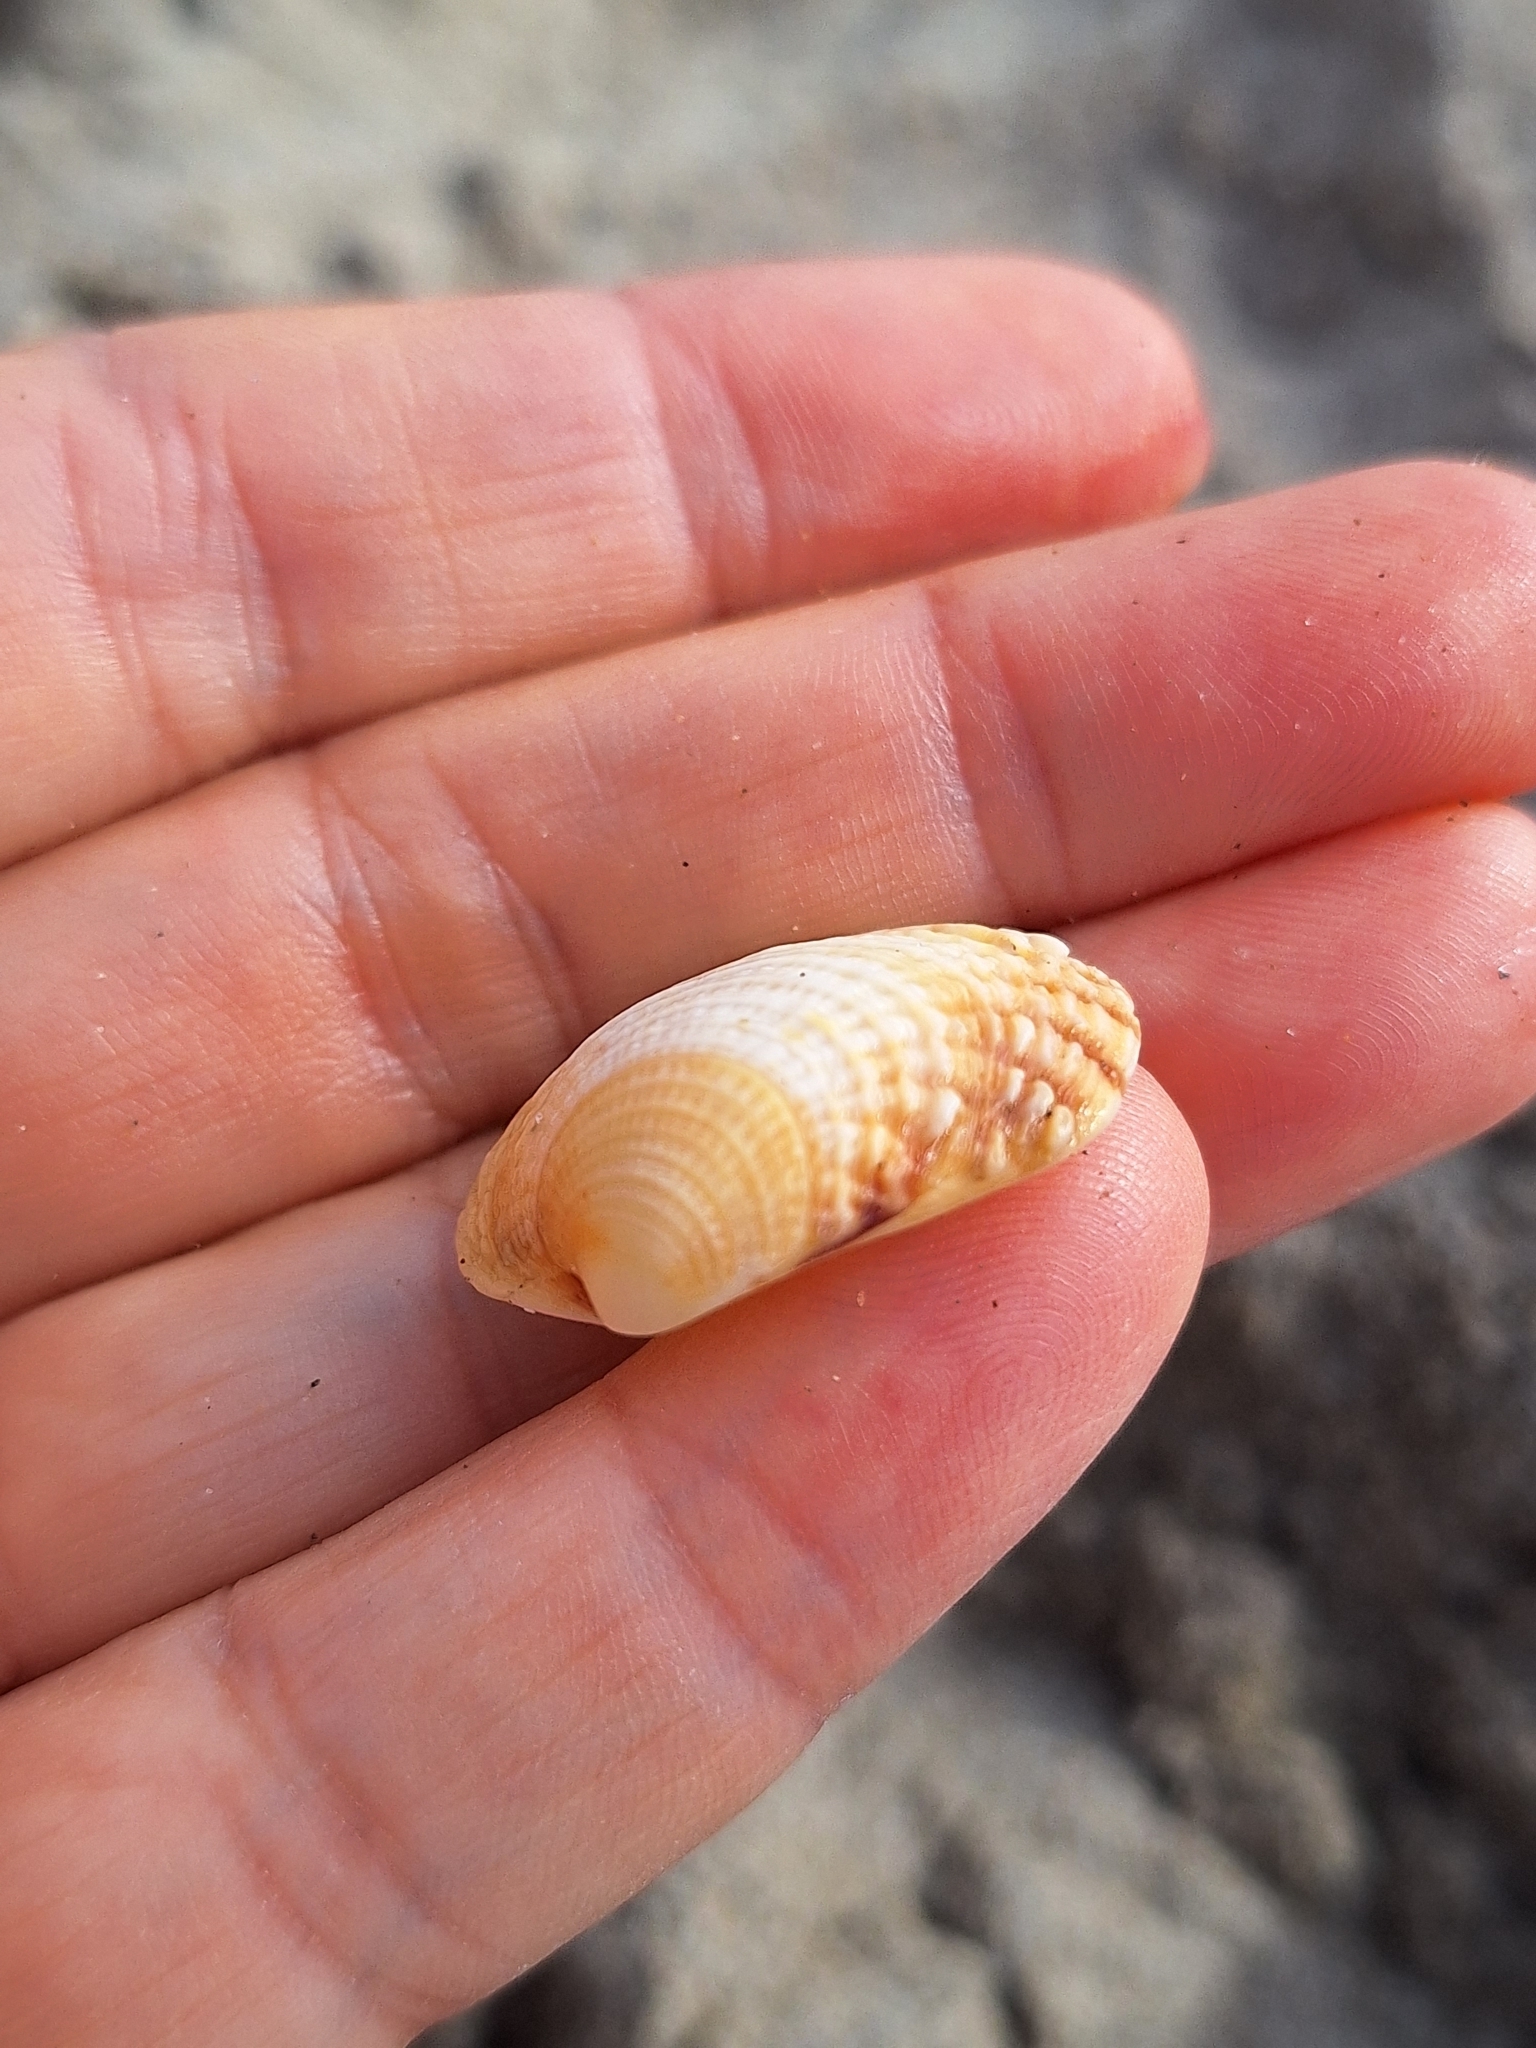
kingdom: Animalia
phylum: Mollusca
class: Bivalvia
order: Venerida
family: Veneridae
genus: Venus
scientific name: Venus verrucosa
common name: Warty venus
